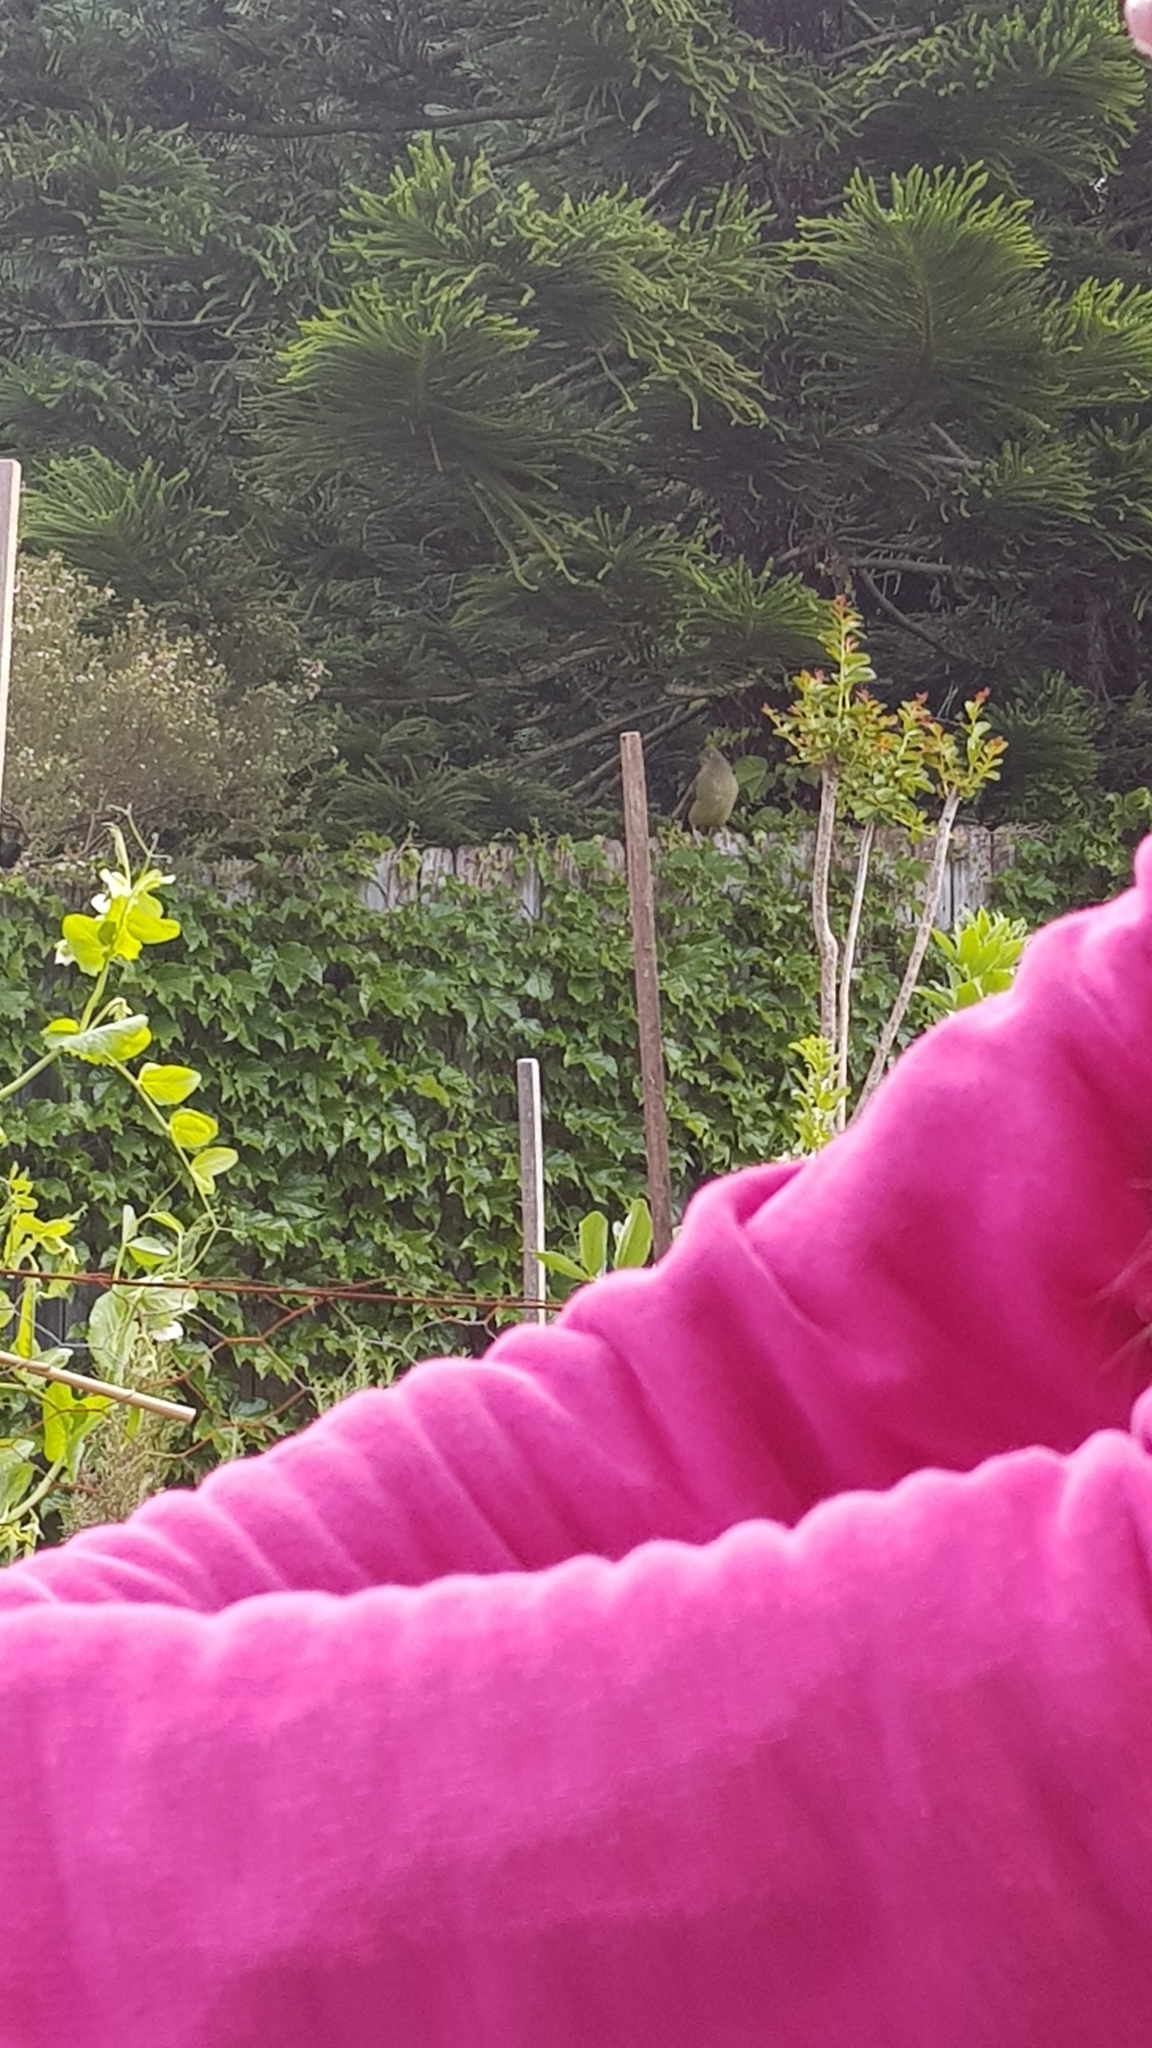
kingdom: Animalia
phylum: Chordata
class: Aves
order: Passeriformes
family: Ptilonorhynchidae
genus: Ptilonorhynchus
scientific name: Ptilonorhynchus violaceus
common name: Satin bowerbird
